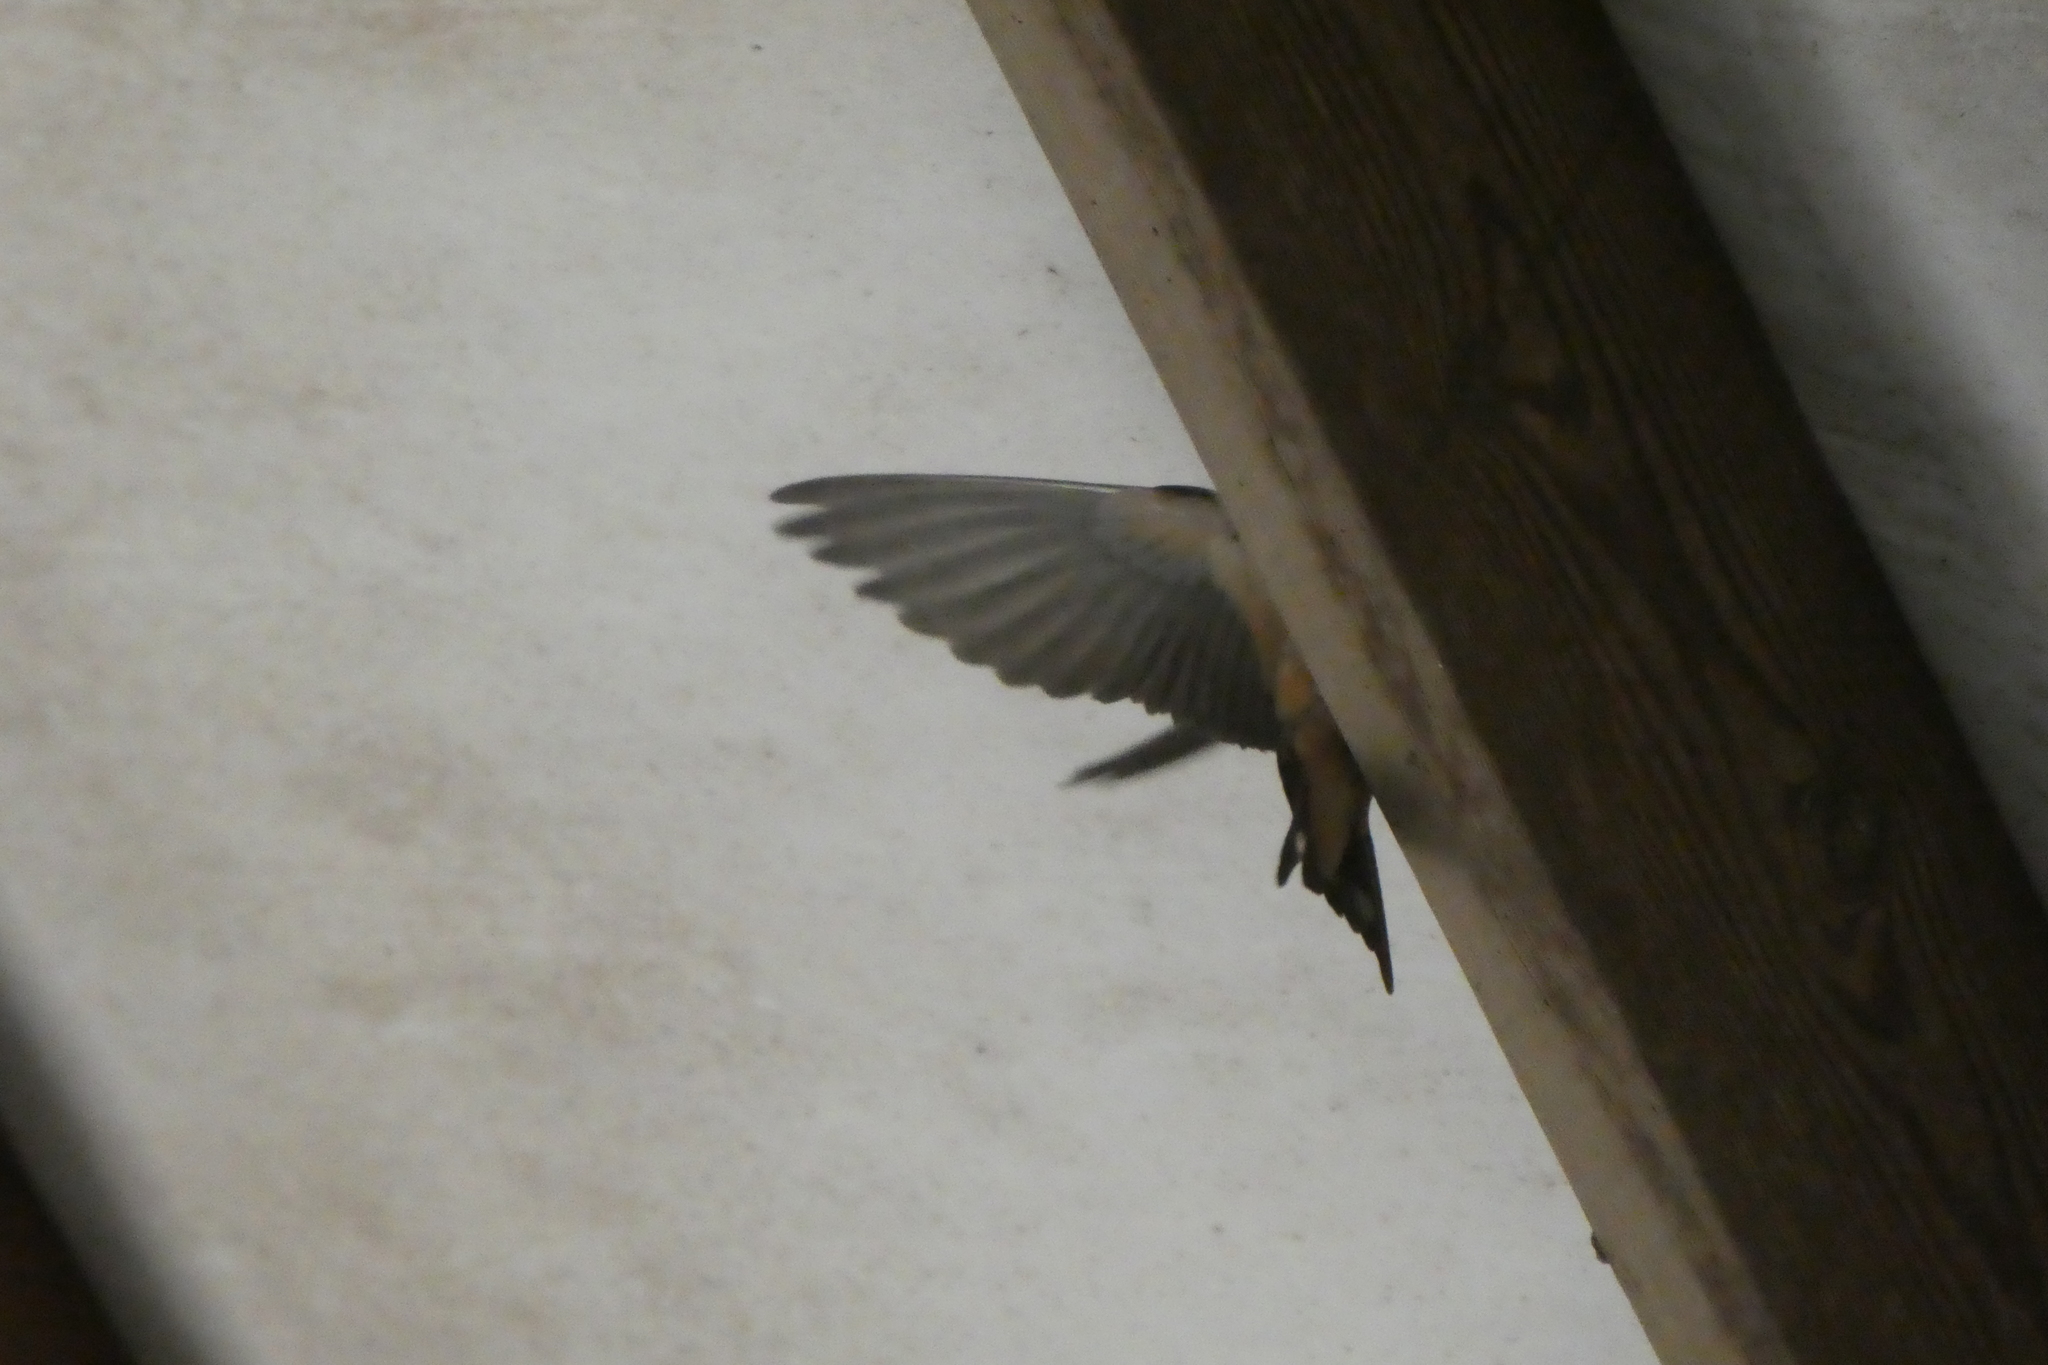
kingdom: Animalia
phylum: Chordata
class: Aves
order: Passeriformes
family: Hirundinidae
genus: Hirundo
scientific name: Hirundo rustica
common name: Barn swallow
